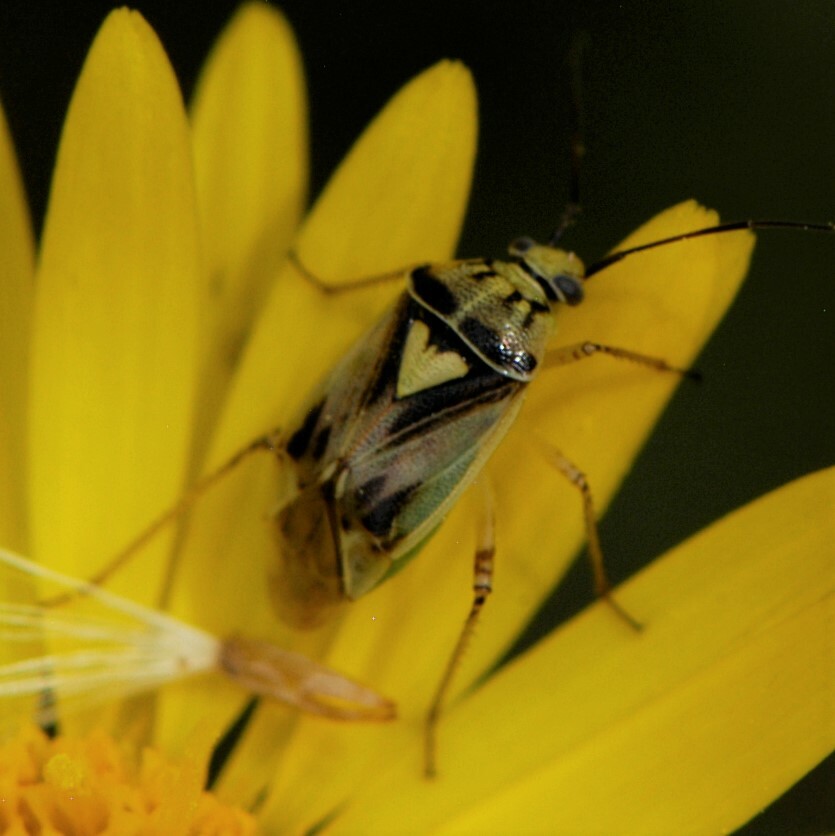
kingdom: Animalia
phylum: Arthropoda
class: Insecta
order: Hemiptera
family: Miridae
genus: Lygus
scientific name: Lygus atriflavus
